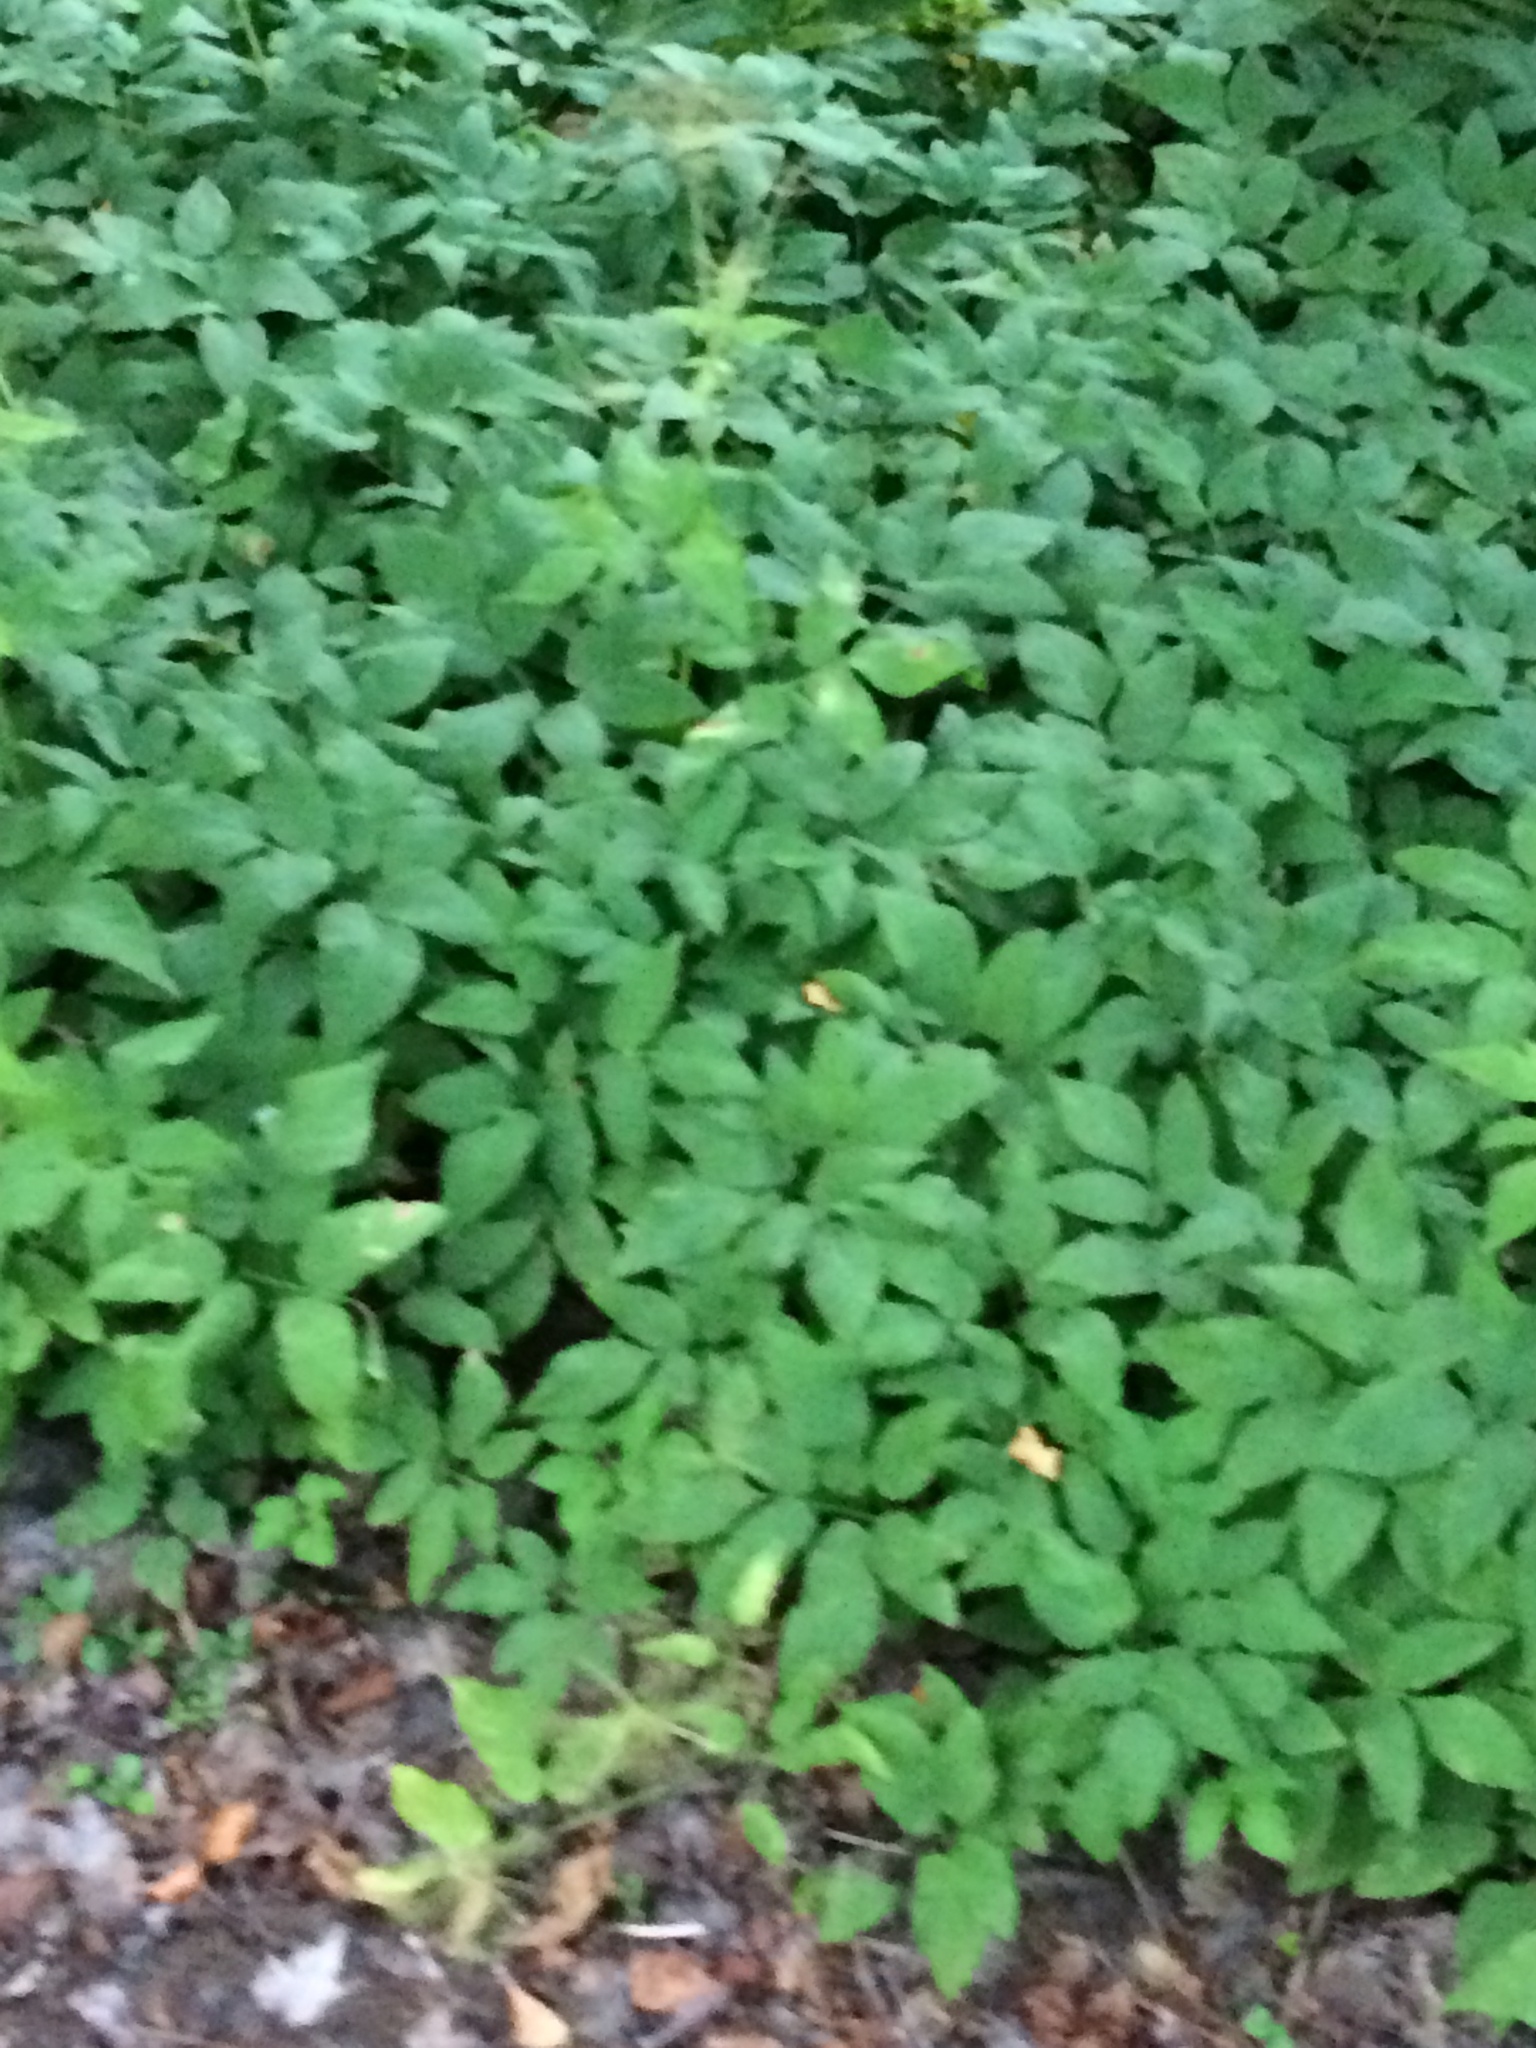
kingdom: Plantae
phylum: Tracheophyta
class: Magnoliopsida
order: Apiales
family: Apiaceae
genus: Aegopodium
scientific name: Aegopodium podagraria
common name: Ground-elder
